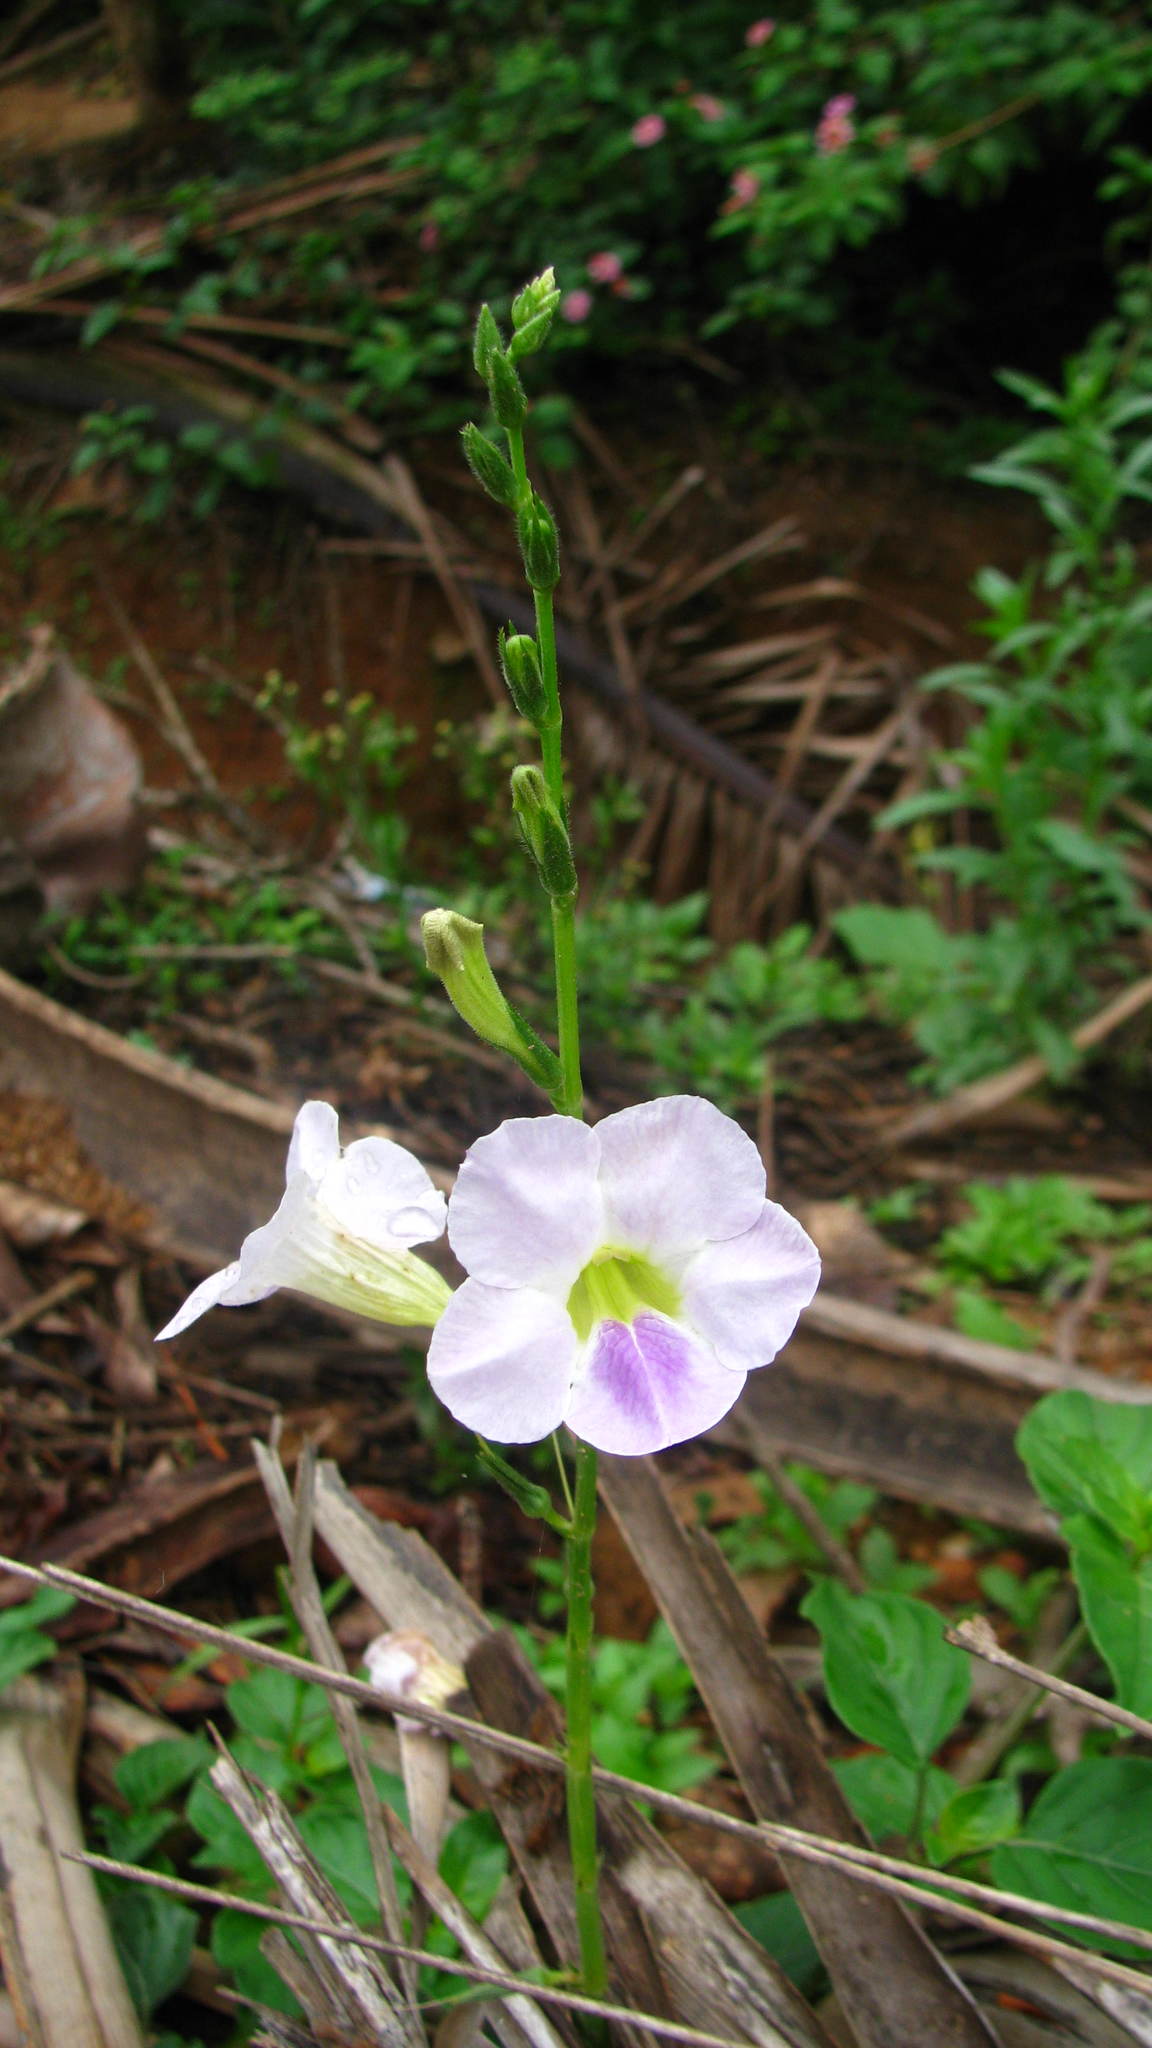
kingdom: Plantae
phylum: Tracheophyta
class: Magnoliopsida
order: Lamiales
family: Acanthaceae
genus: Asystasia
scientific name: Asystasia gangetica
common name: Chinese violet
